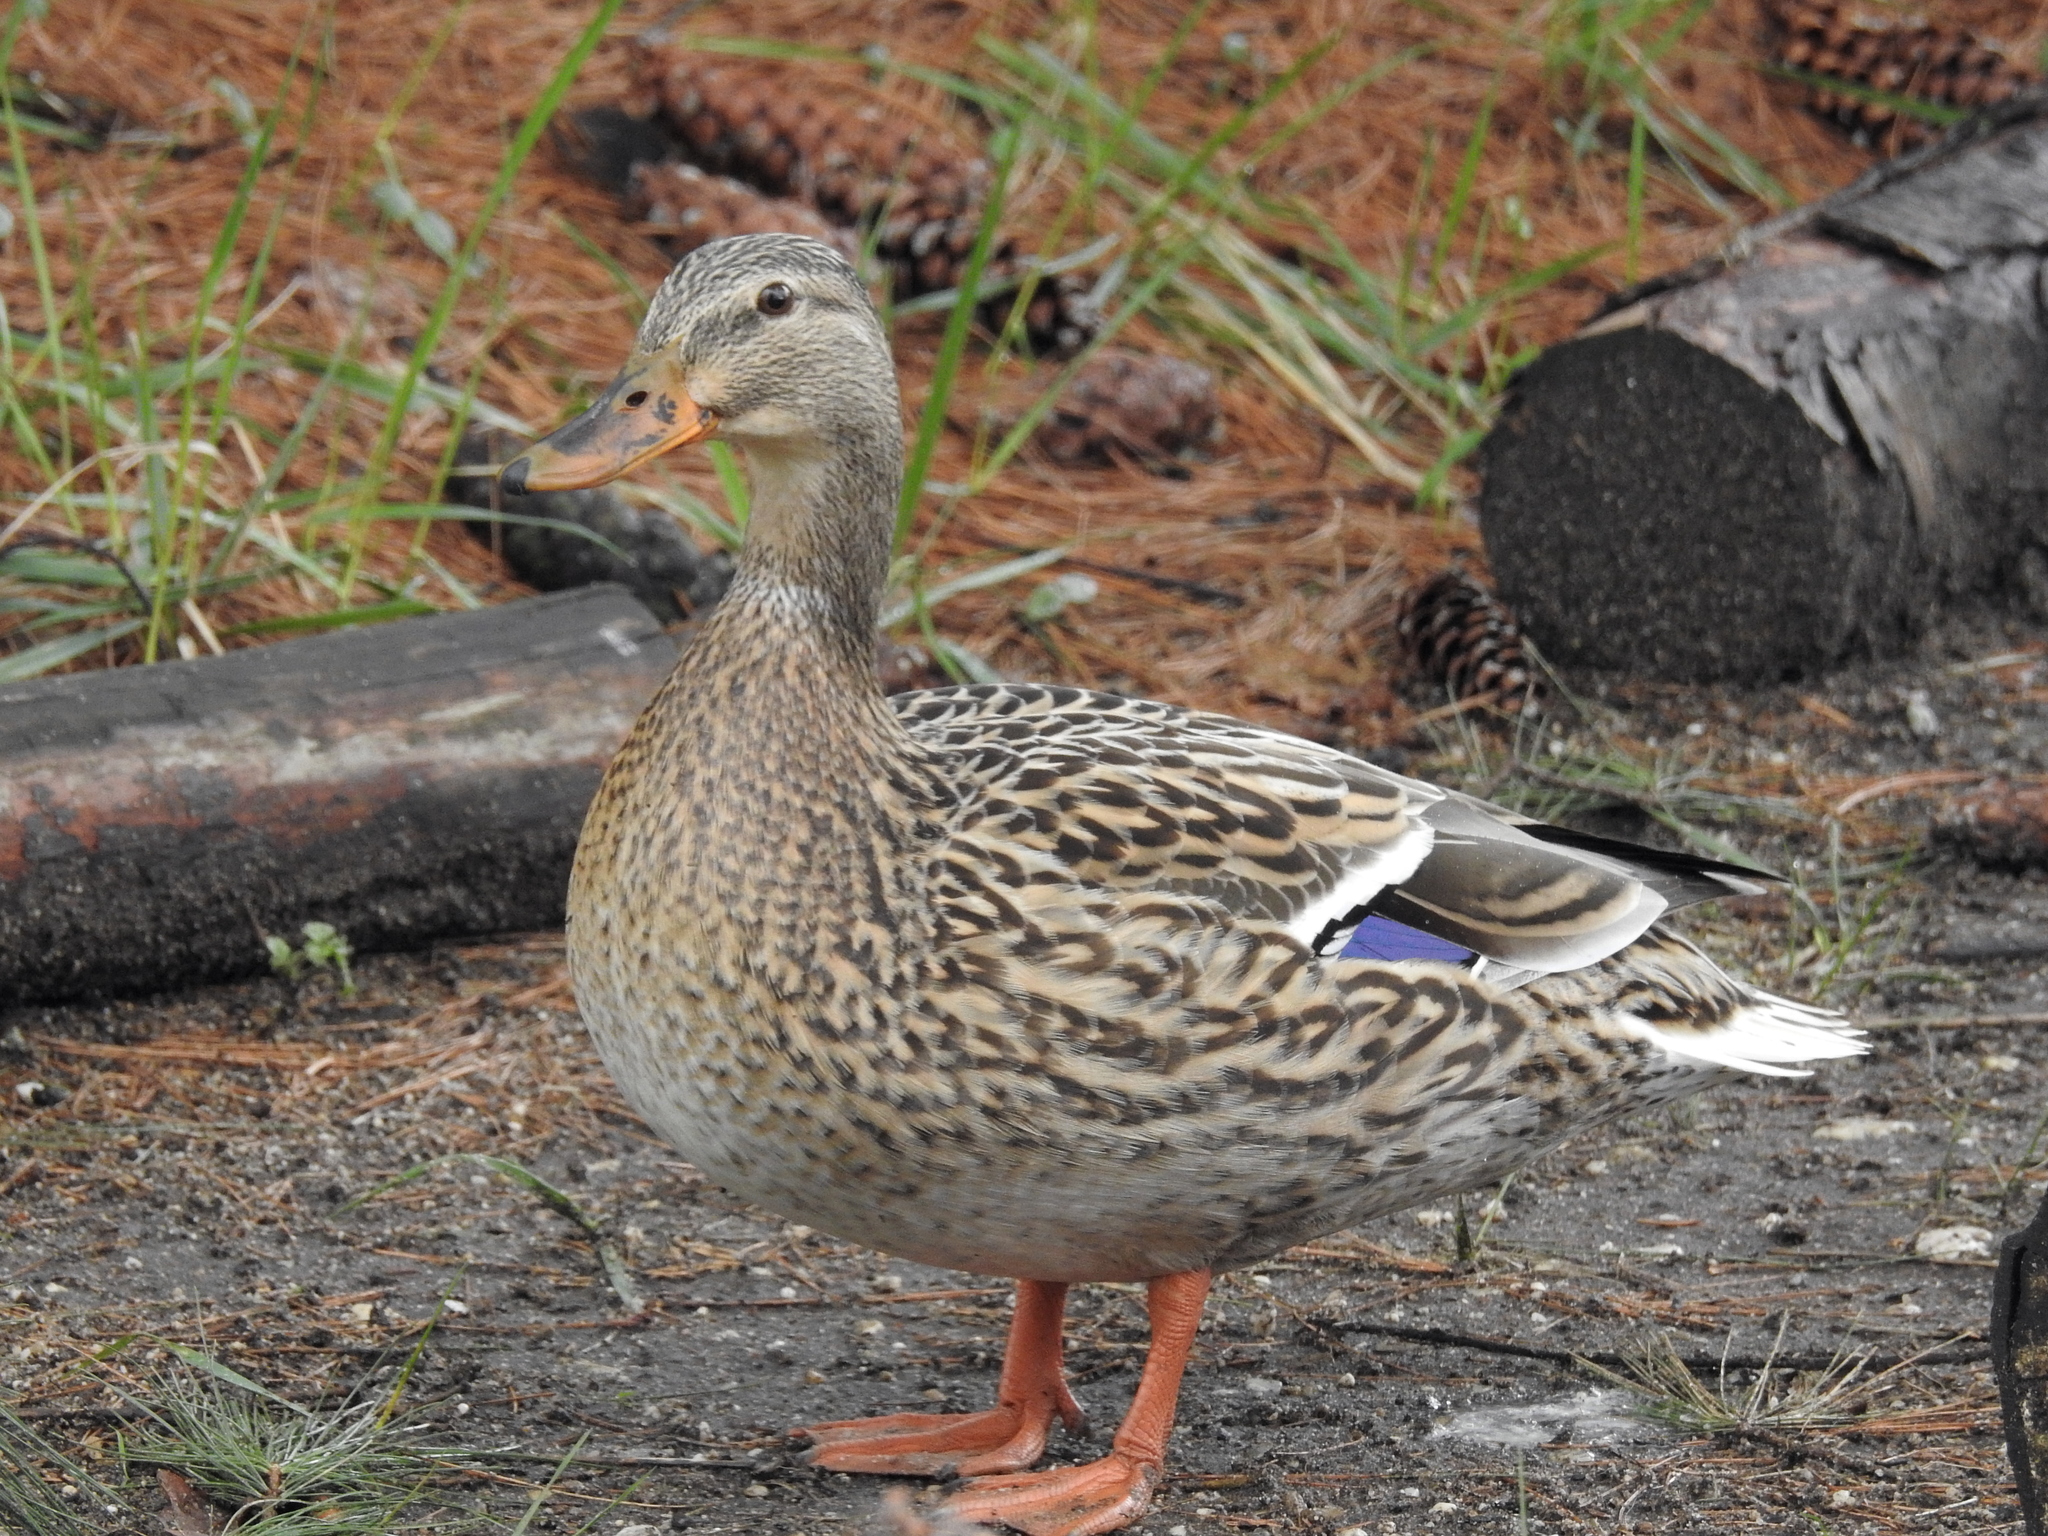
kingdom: Animalia
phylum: Chordata
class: Aves
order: Anseriformes
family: Anatidae
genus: Anas
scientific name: Anas platyrhynchos
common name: Mallard
